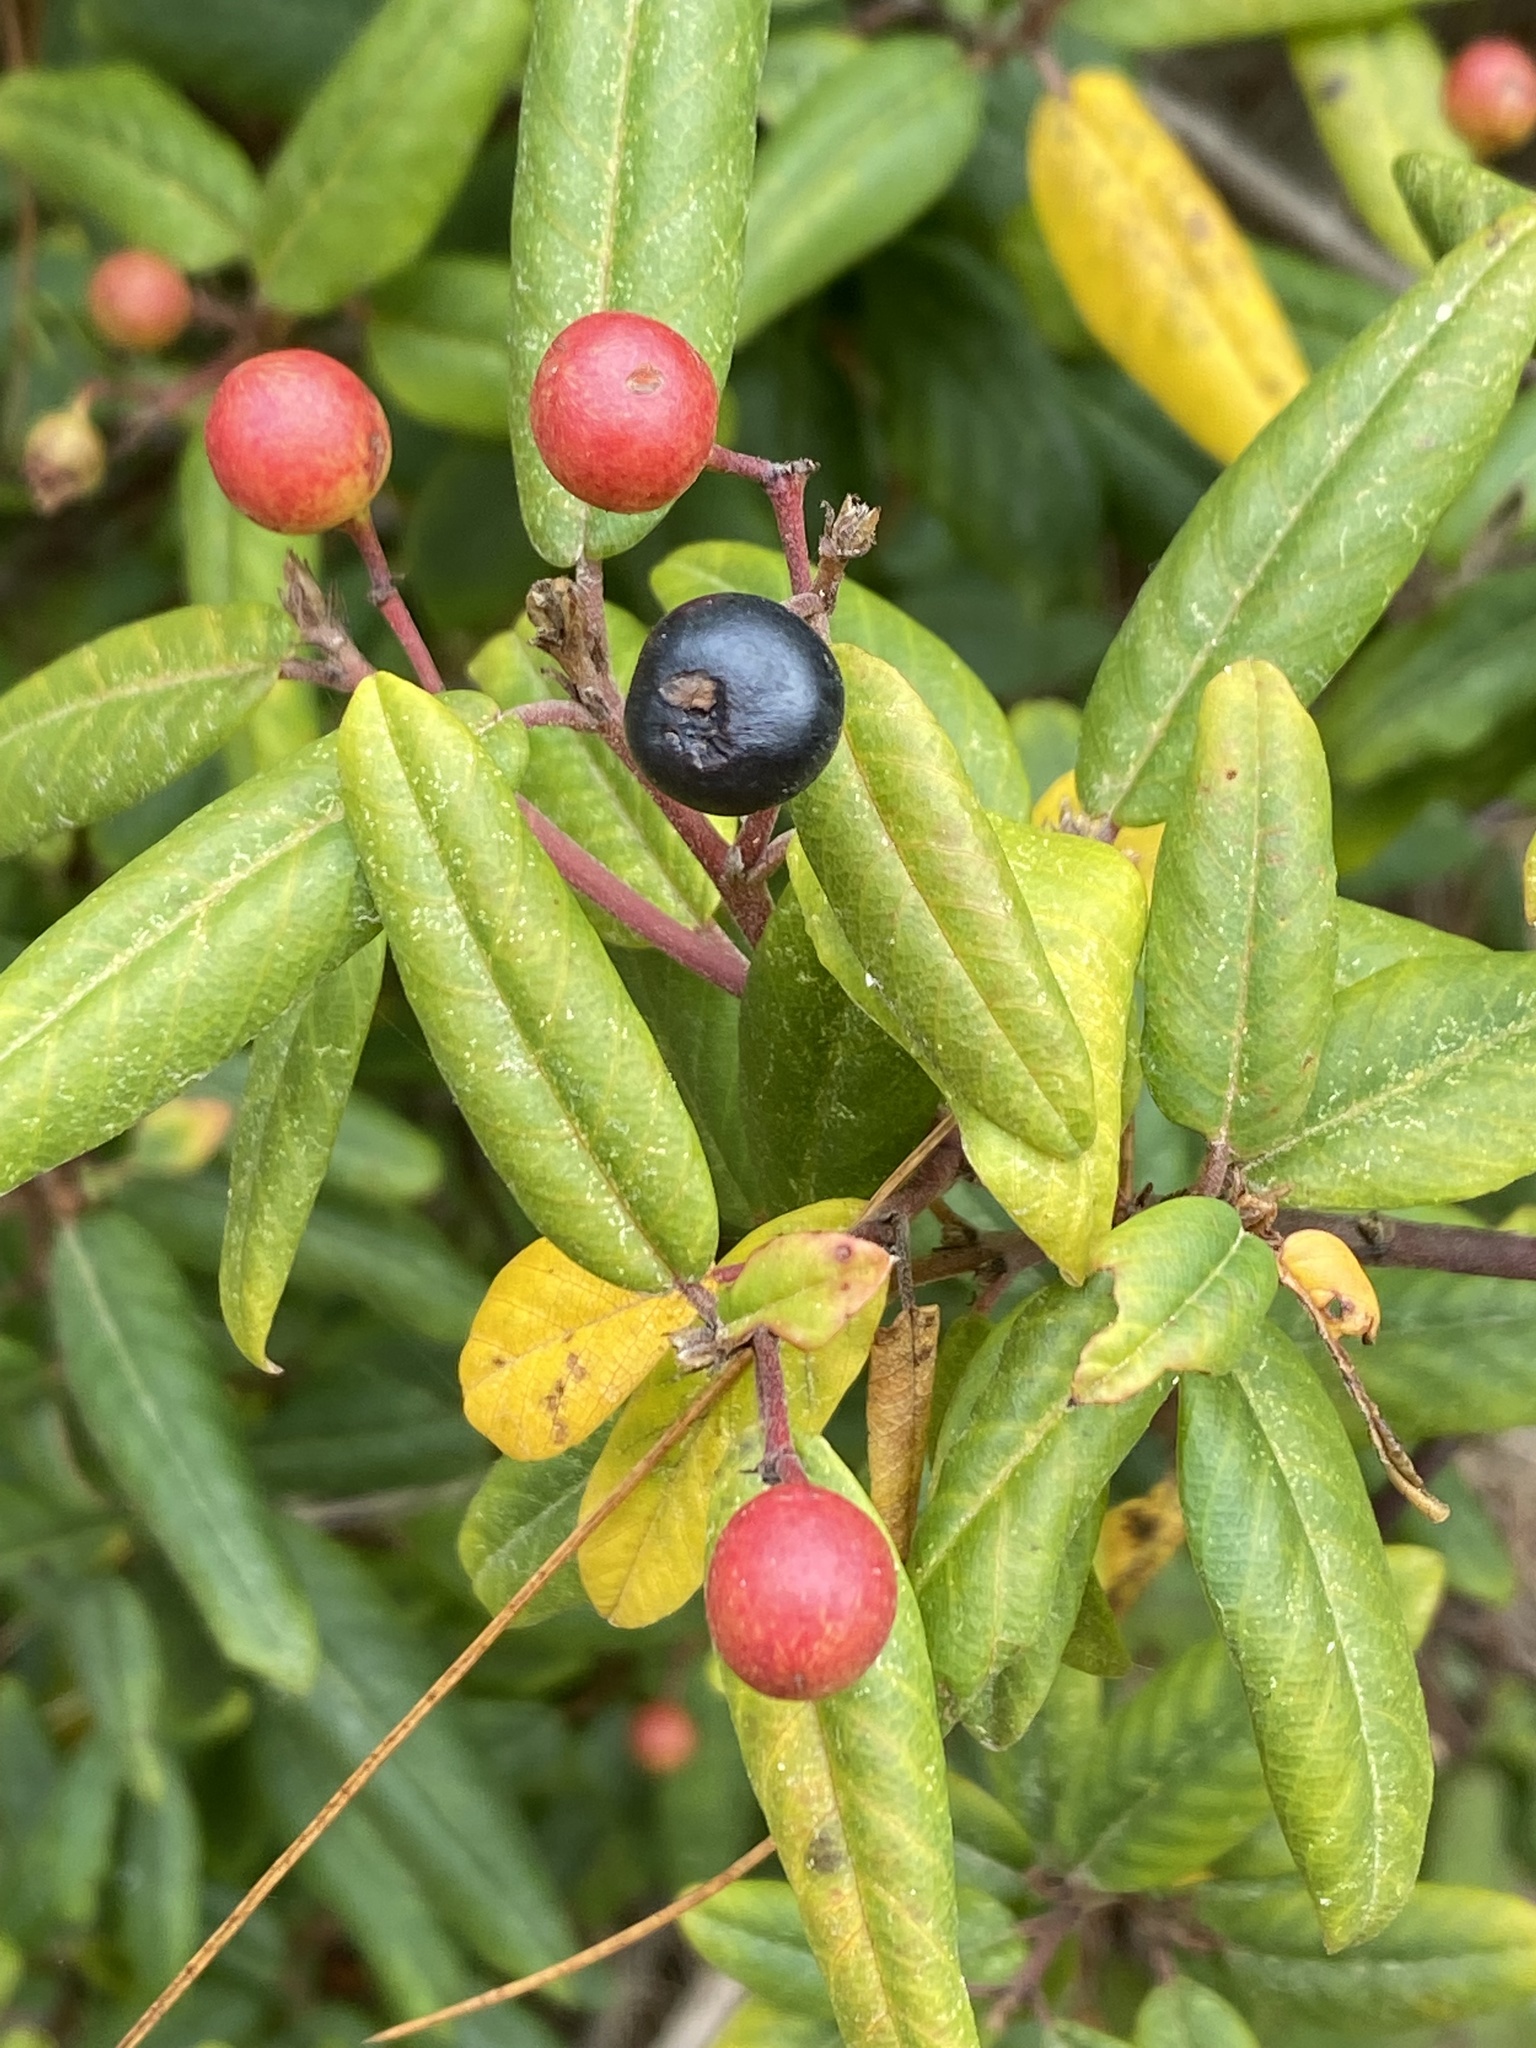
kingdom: Plantae
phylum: Tracheophyta
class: Magnoliopsida
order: Rosales
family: Rhamnaceae
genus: Frangula
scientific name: Frangula californica
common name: California buckthorn
